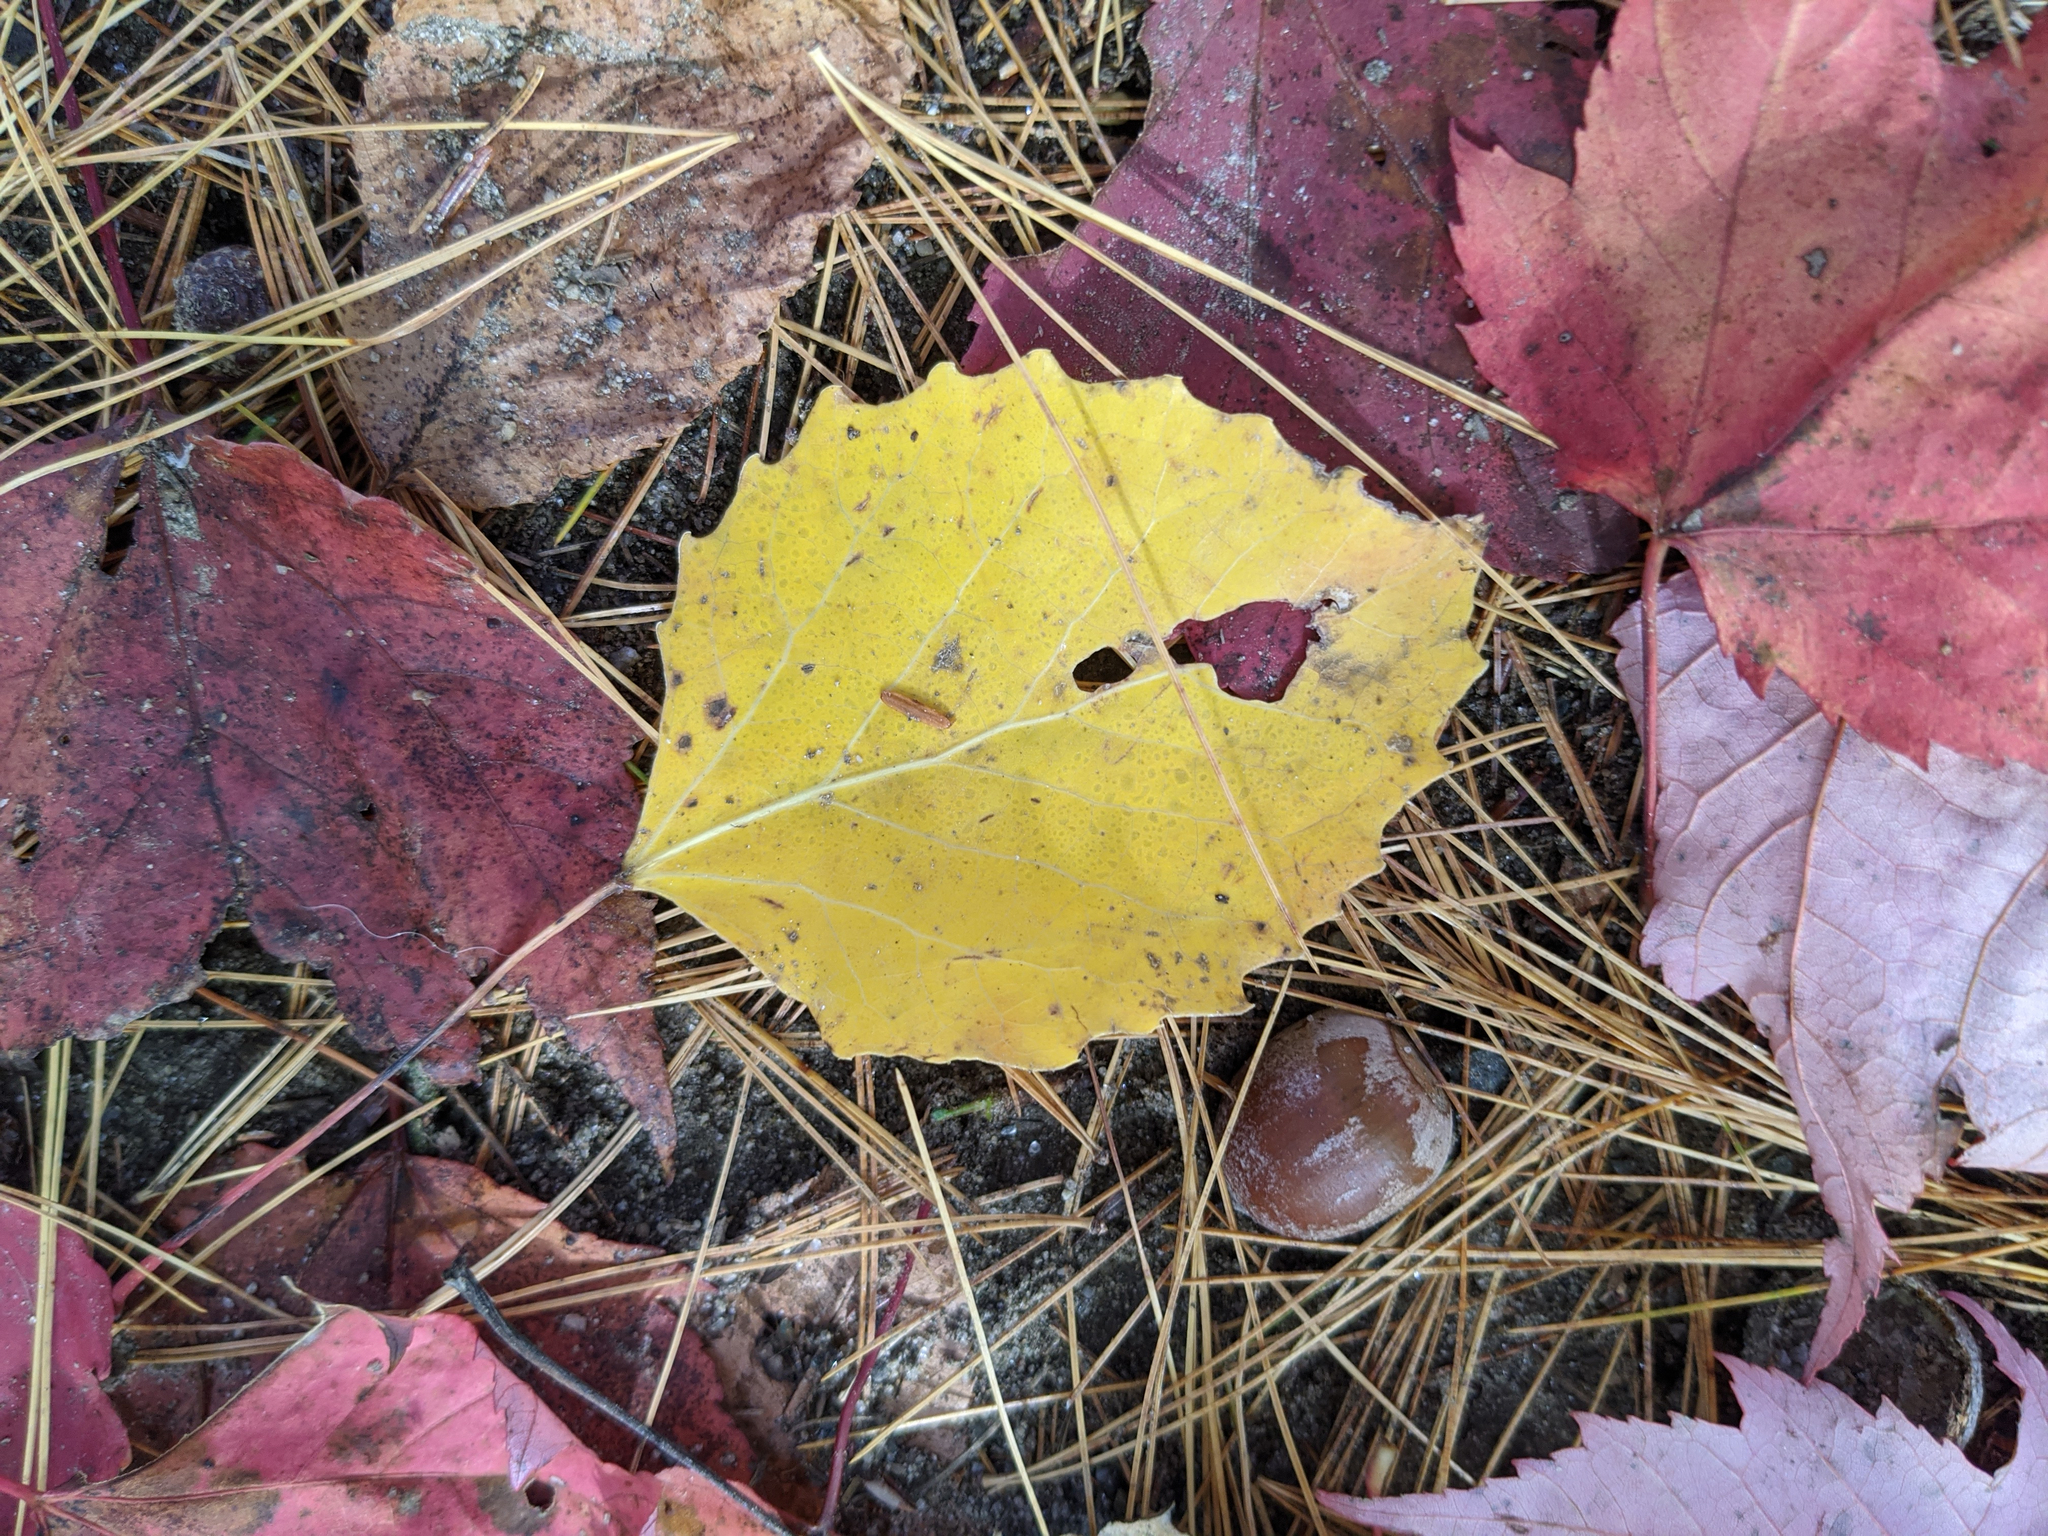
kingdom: Plantae
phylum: Tracheophyta
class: Magnoliopsida
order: Malpighiales
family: Salicaceae
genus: Populus
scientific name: Populus grandidentata
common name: Bigtooth aspen
